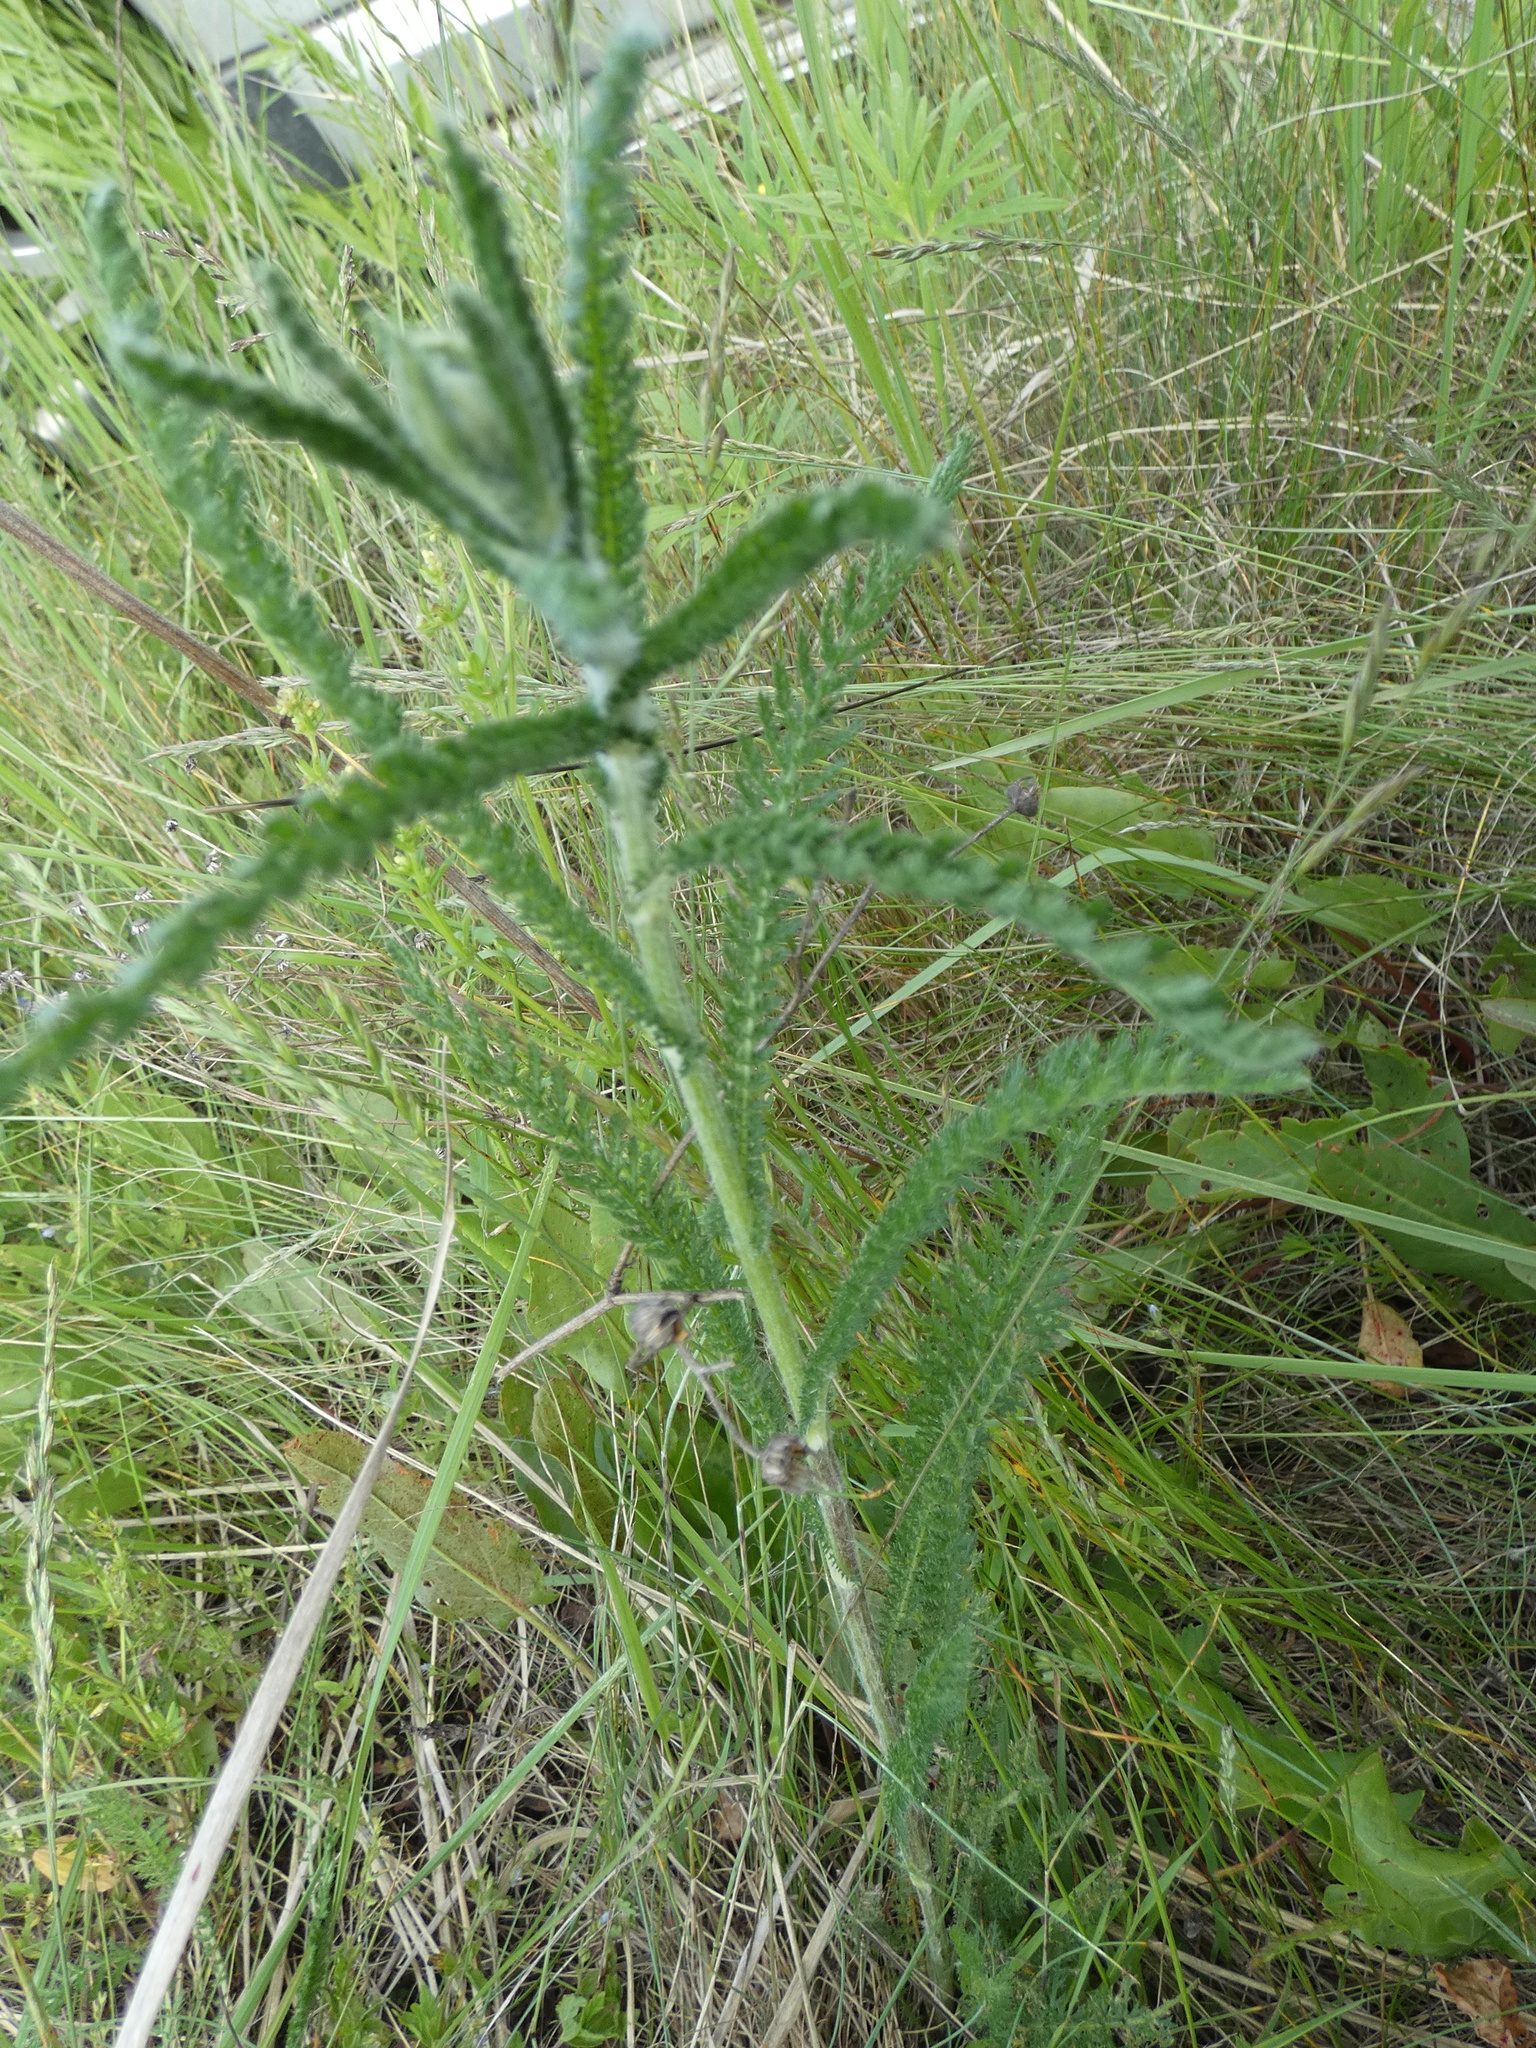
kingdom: Plantae
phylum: Tracheophyta
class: Magnoliopsida
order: Asterales
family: Asteraceae
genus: Achillea
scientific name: Achillea millefolium
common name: Yarrow
